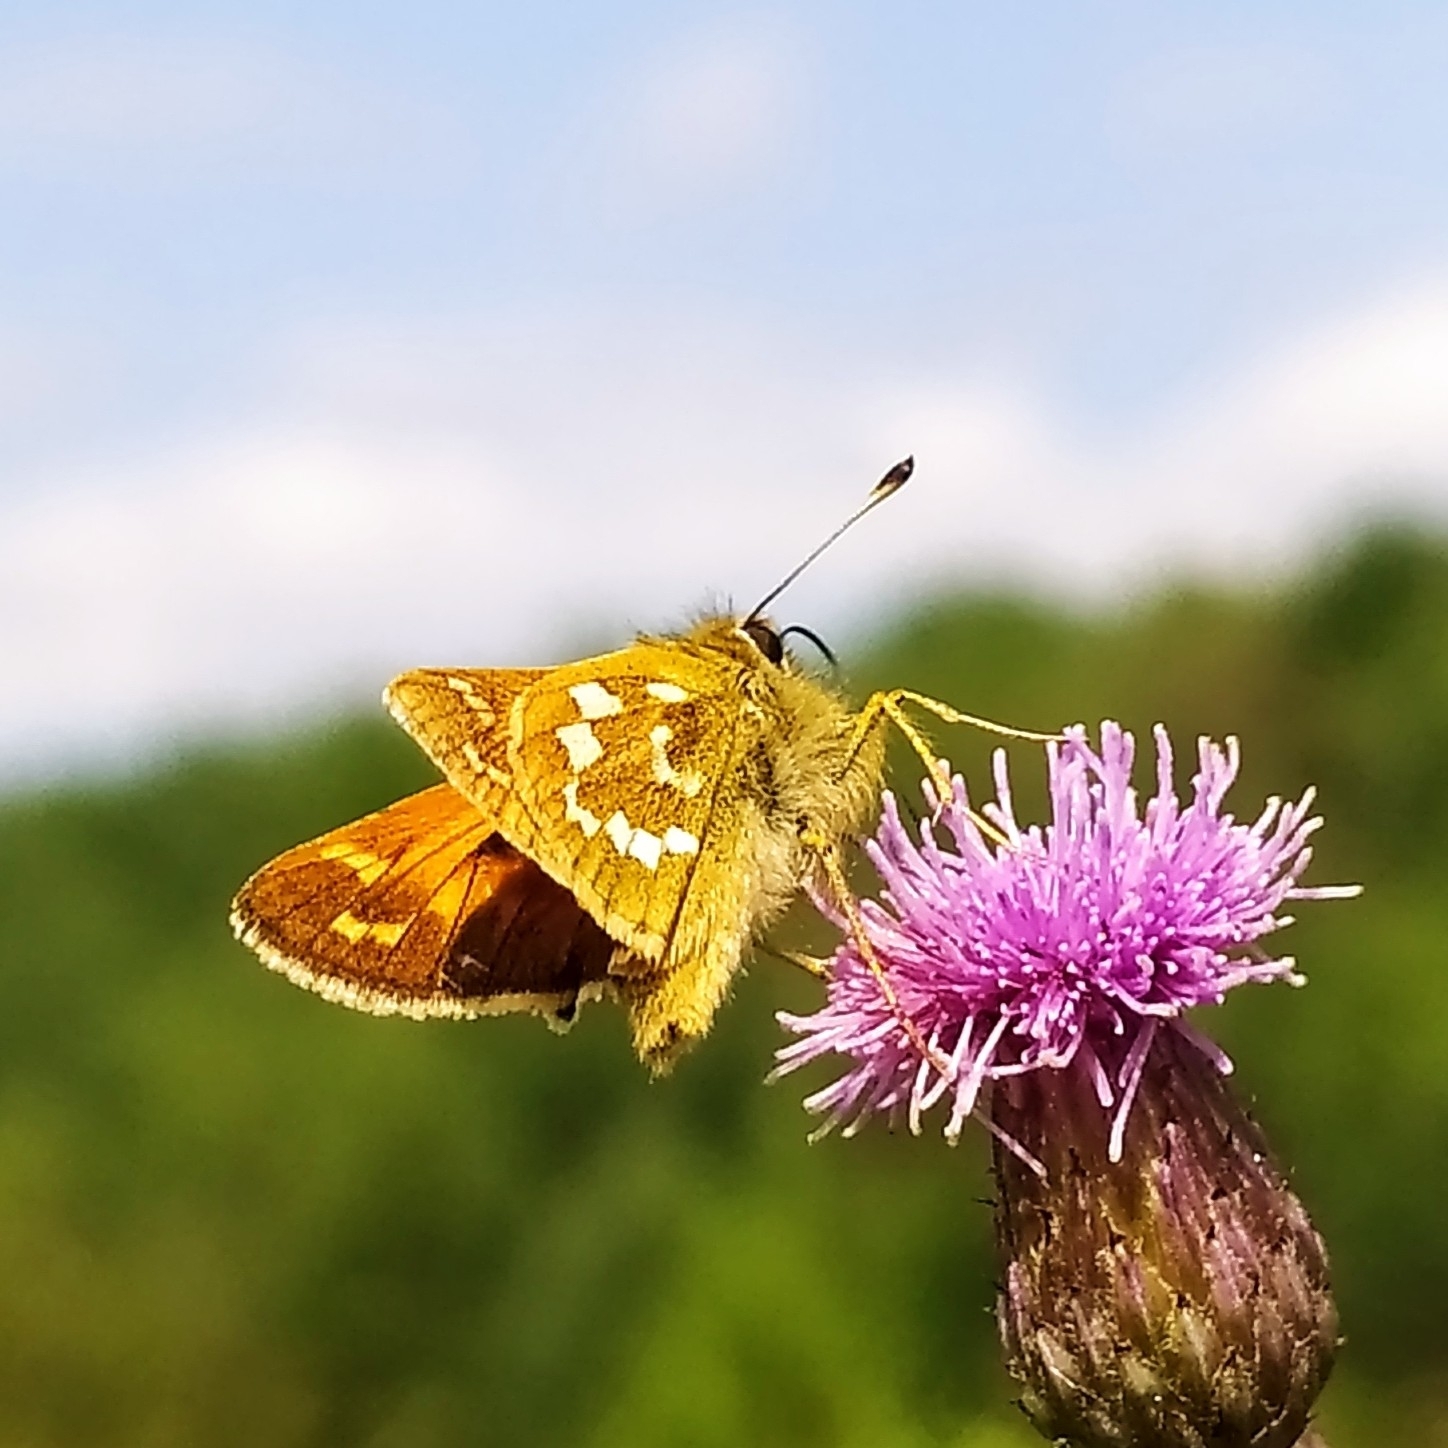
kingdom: Animalia
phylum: Arthropoda
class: Insecta
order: Lepidoptera
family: Hesperiidae
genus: Hesperia
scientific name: Hesperia comma
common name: Common branded skipper
